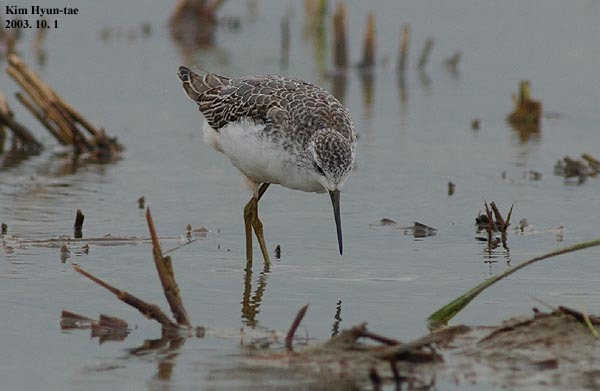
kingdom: Animalia
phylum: Chordata
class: Aves
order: Charadriiformes
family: Scolopacidae
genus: Tringa
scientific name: Tringa stagnatilis
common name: Marsh sandpiper
